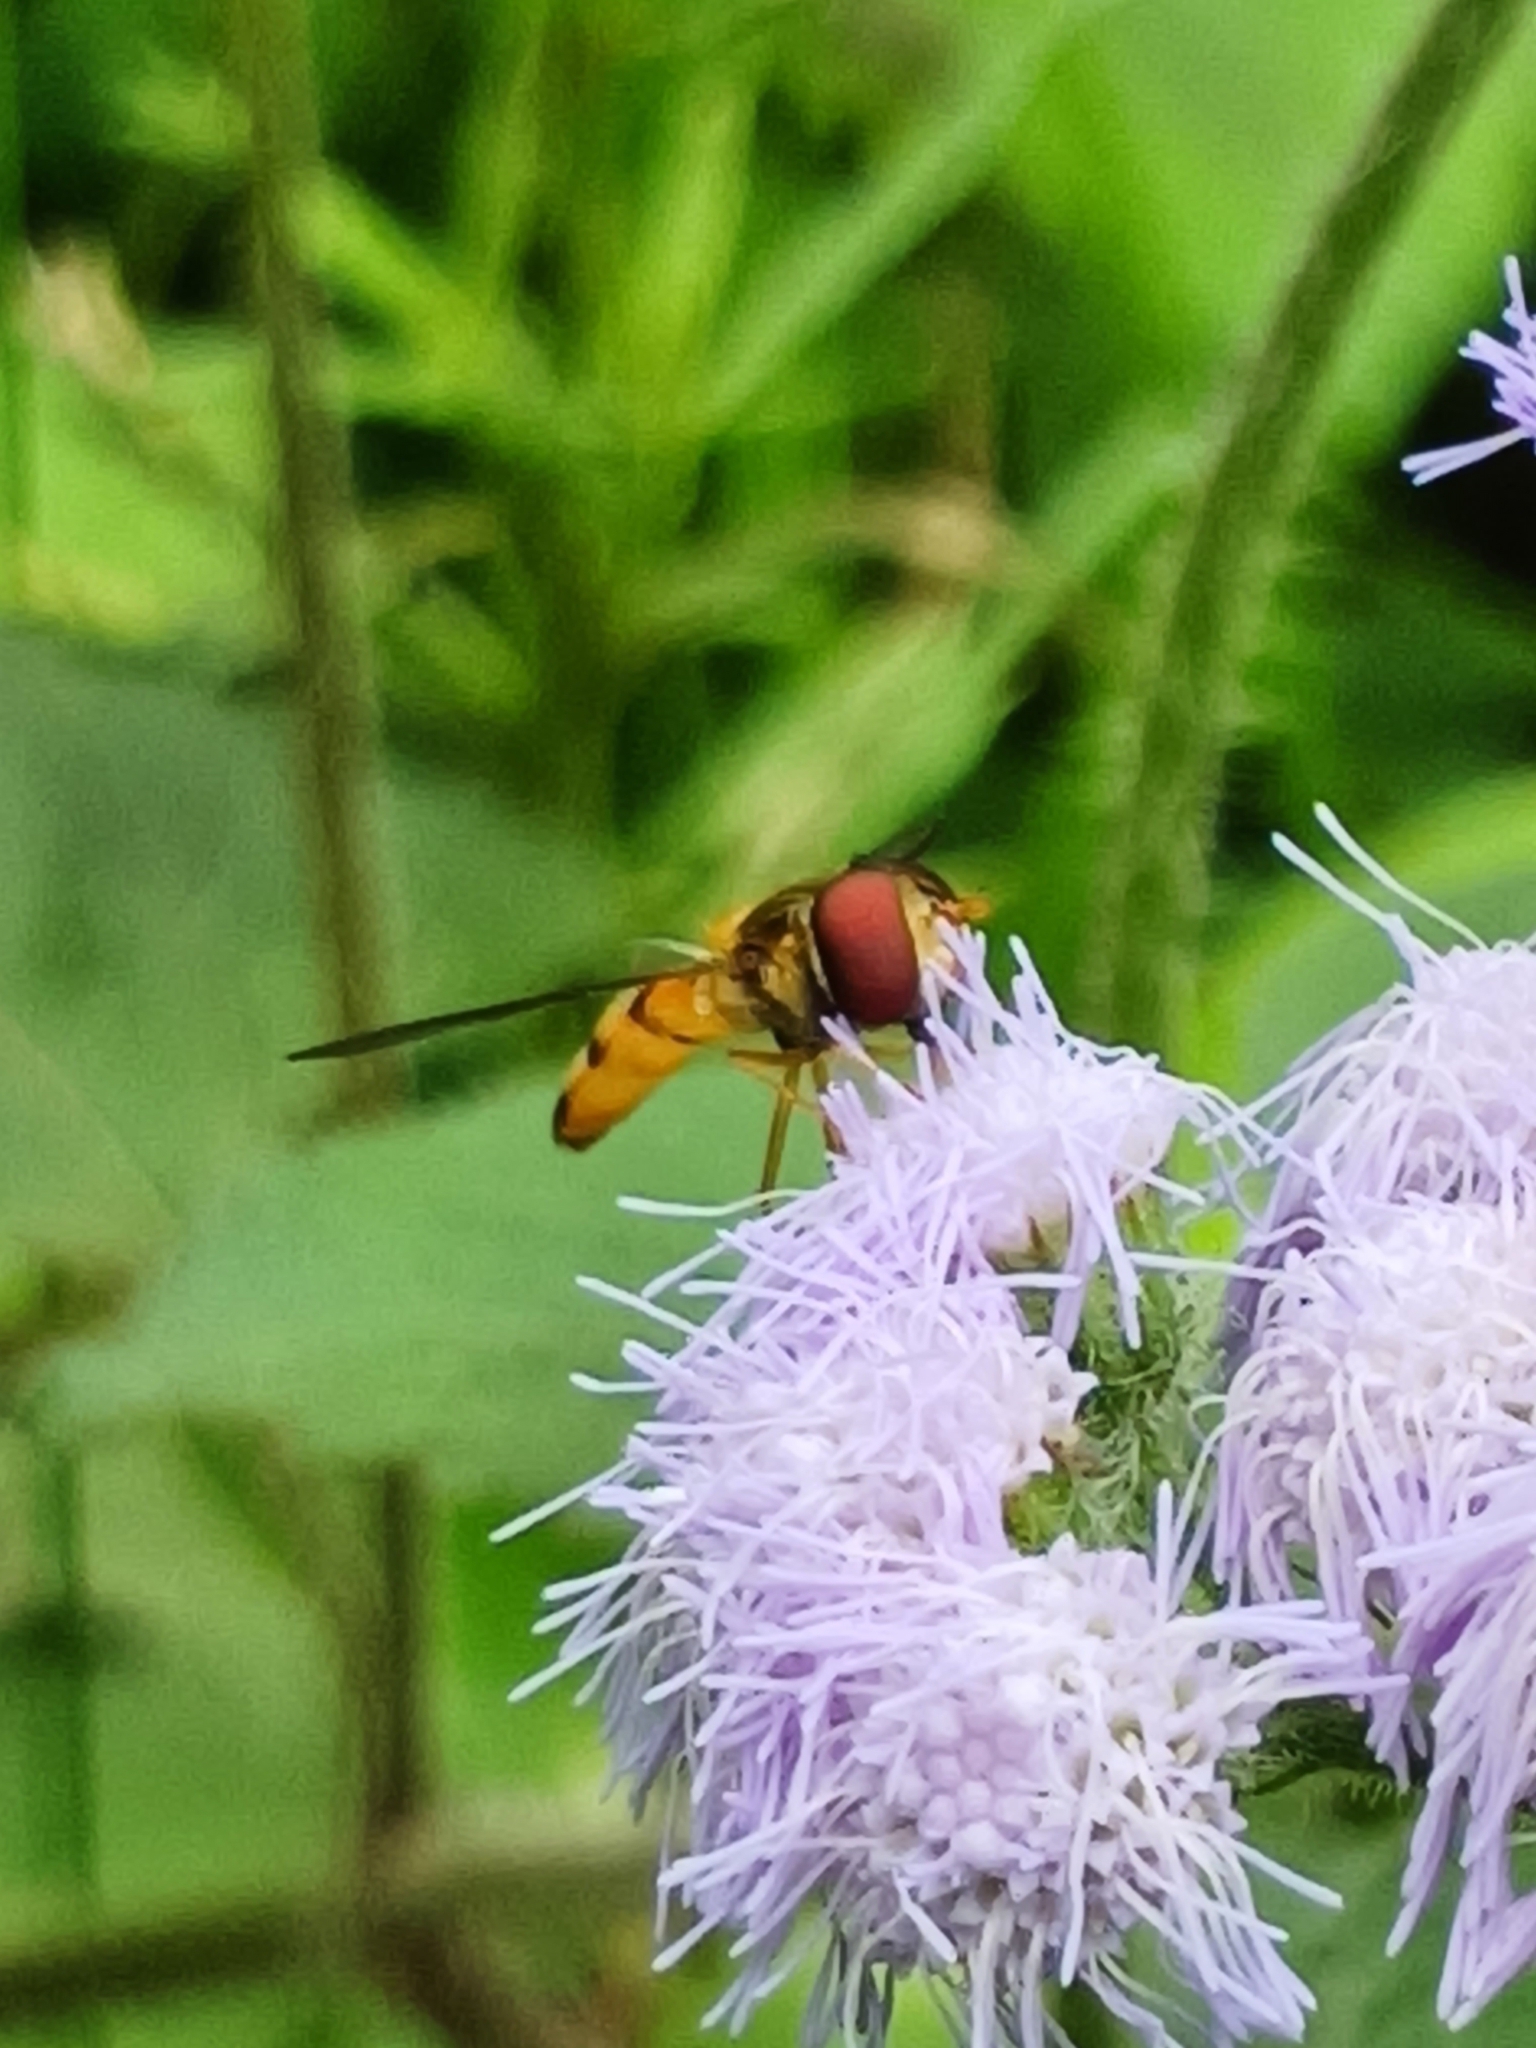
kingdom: Animalia
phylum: Arthropoda
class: Insecta
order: Diptera
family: Syrphidae
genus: Episyrphus
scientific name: Episyrphus trisectus
